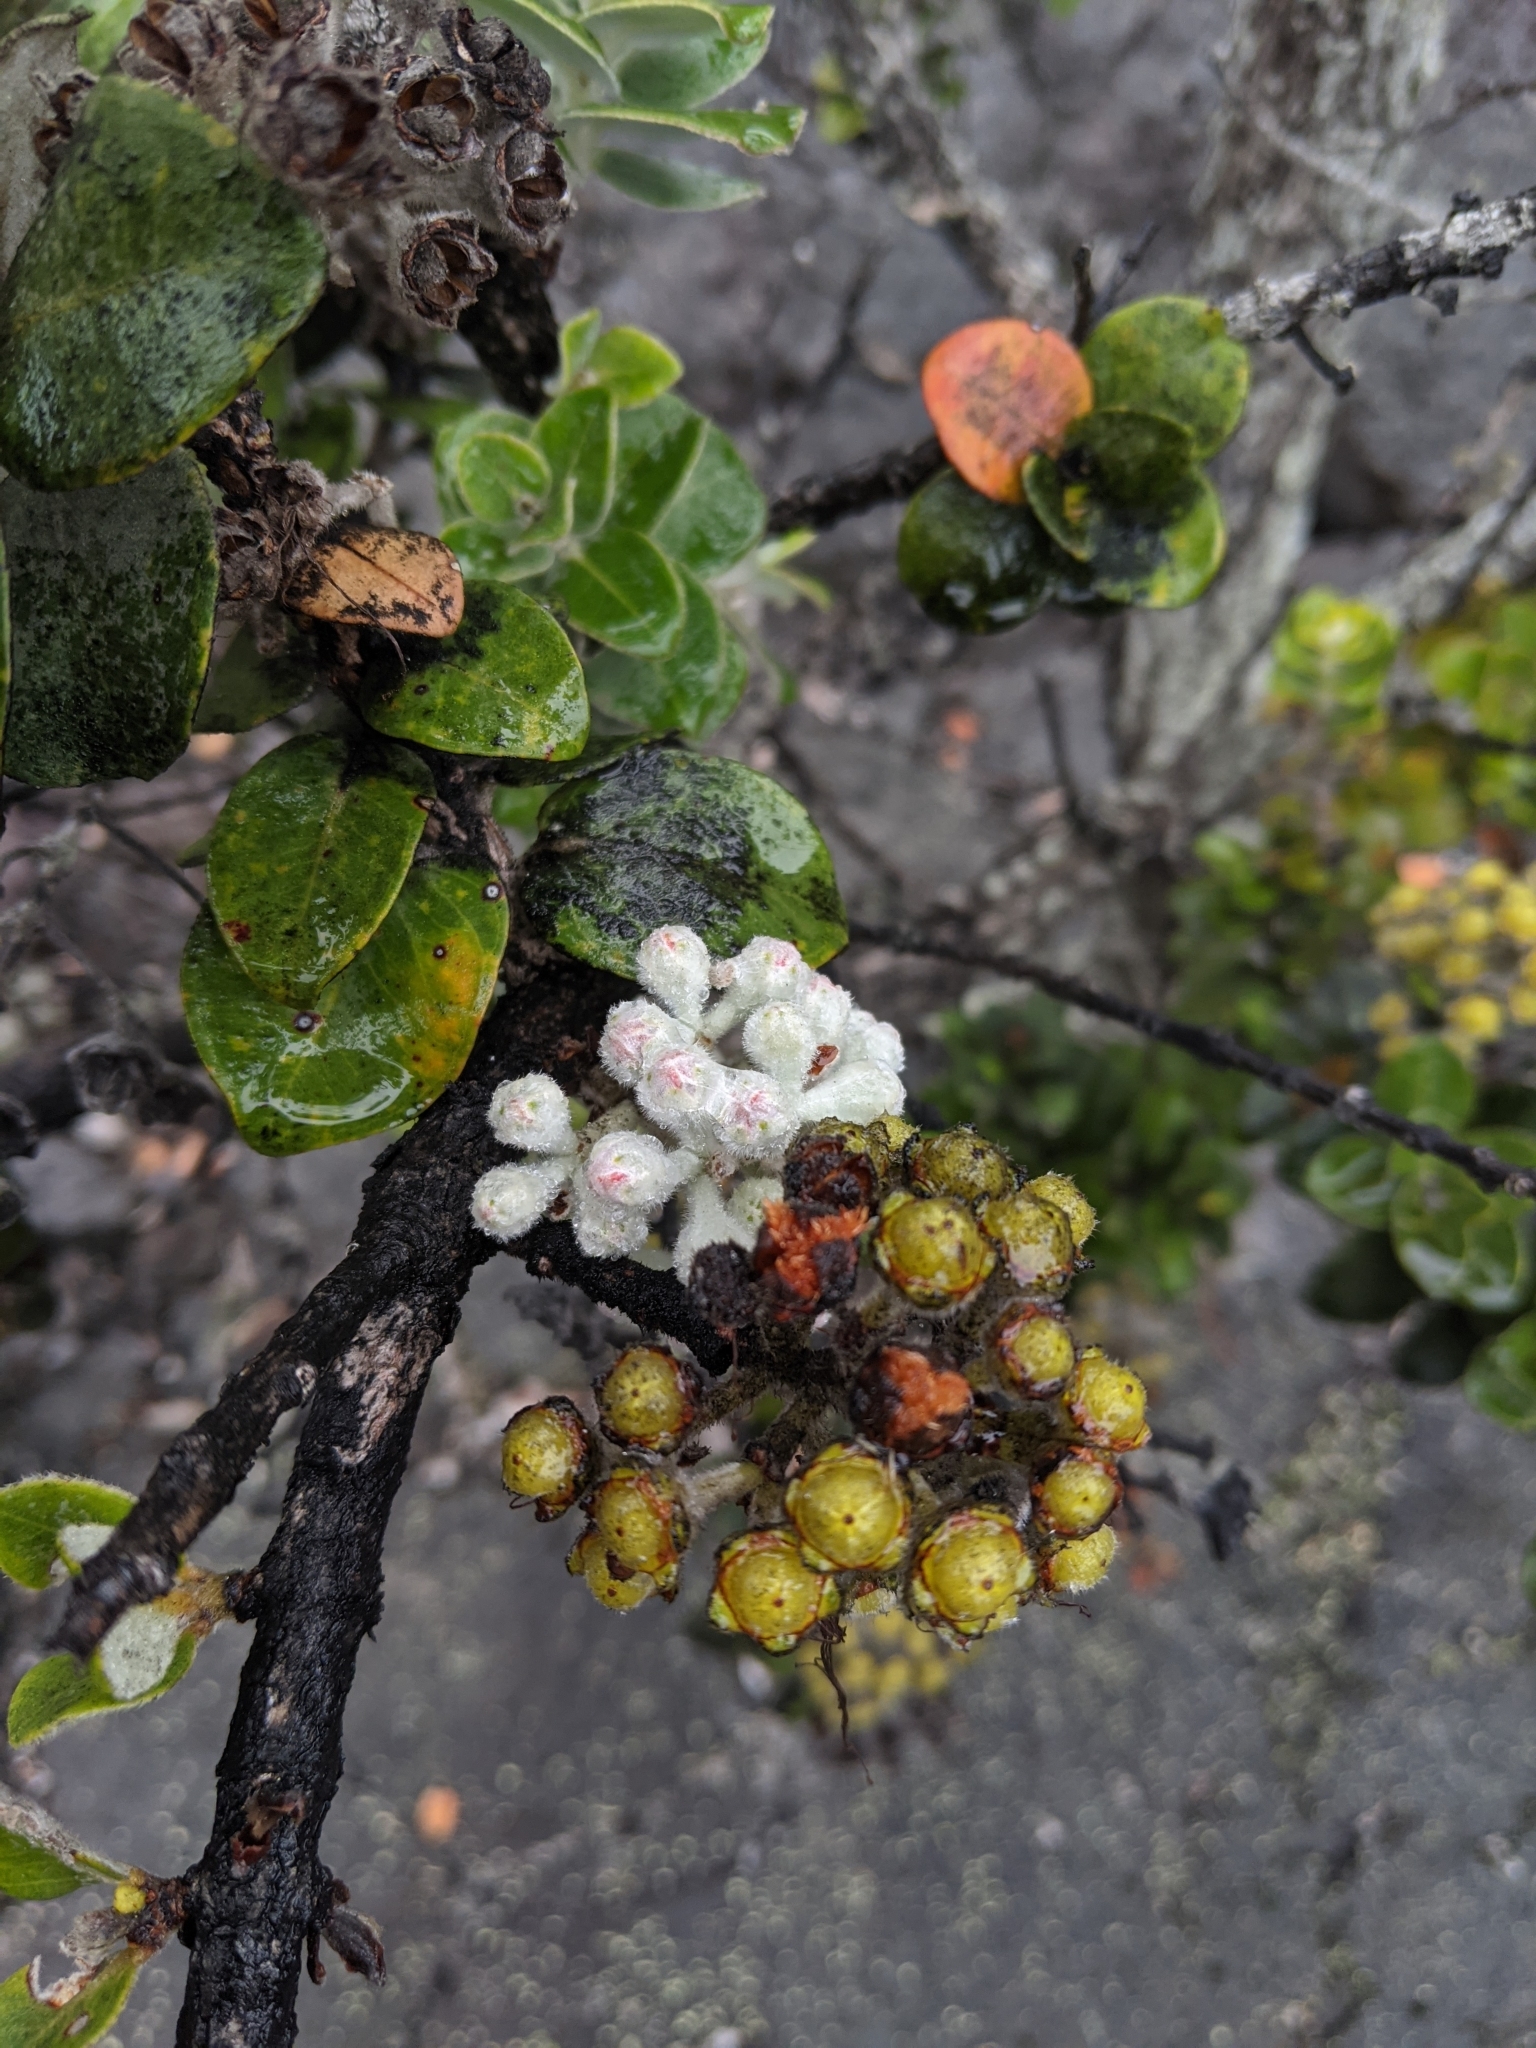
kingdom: Plantae
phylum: Tracheophyta
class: Magnoliopsida
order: Myrtales
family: Myrtaceae
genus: Metrosideros
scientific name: Metrosideros polymorpha
